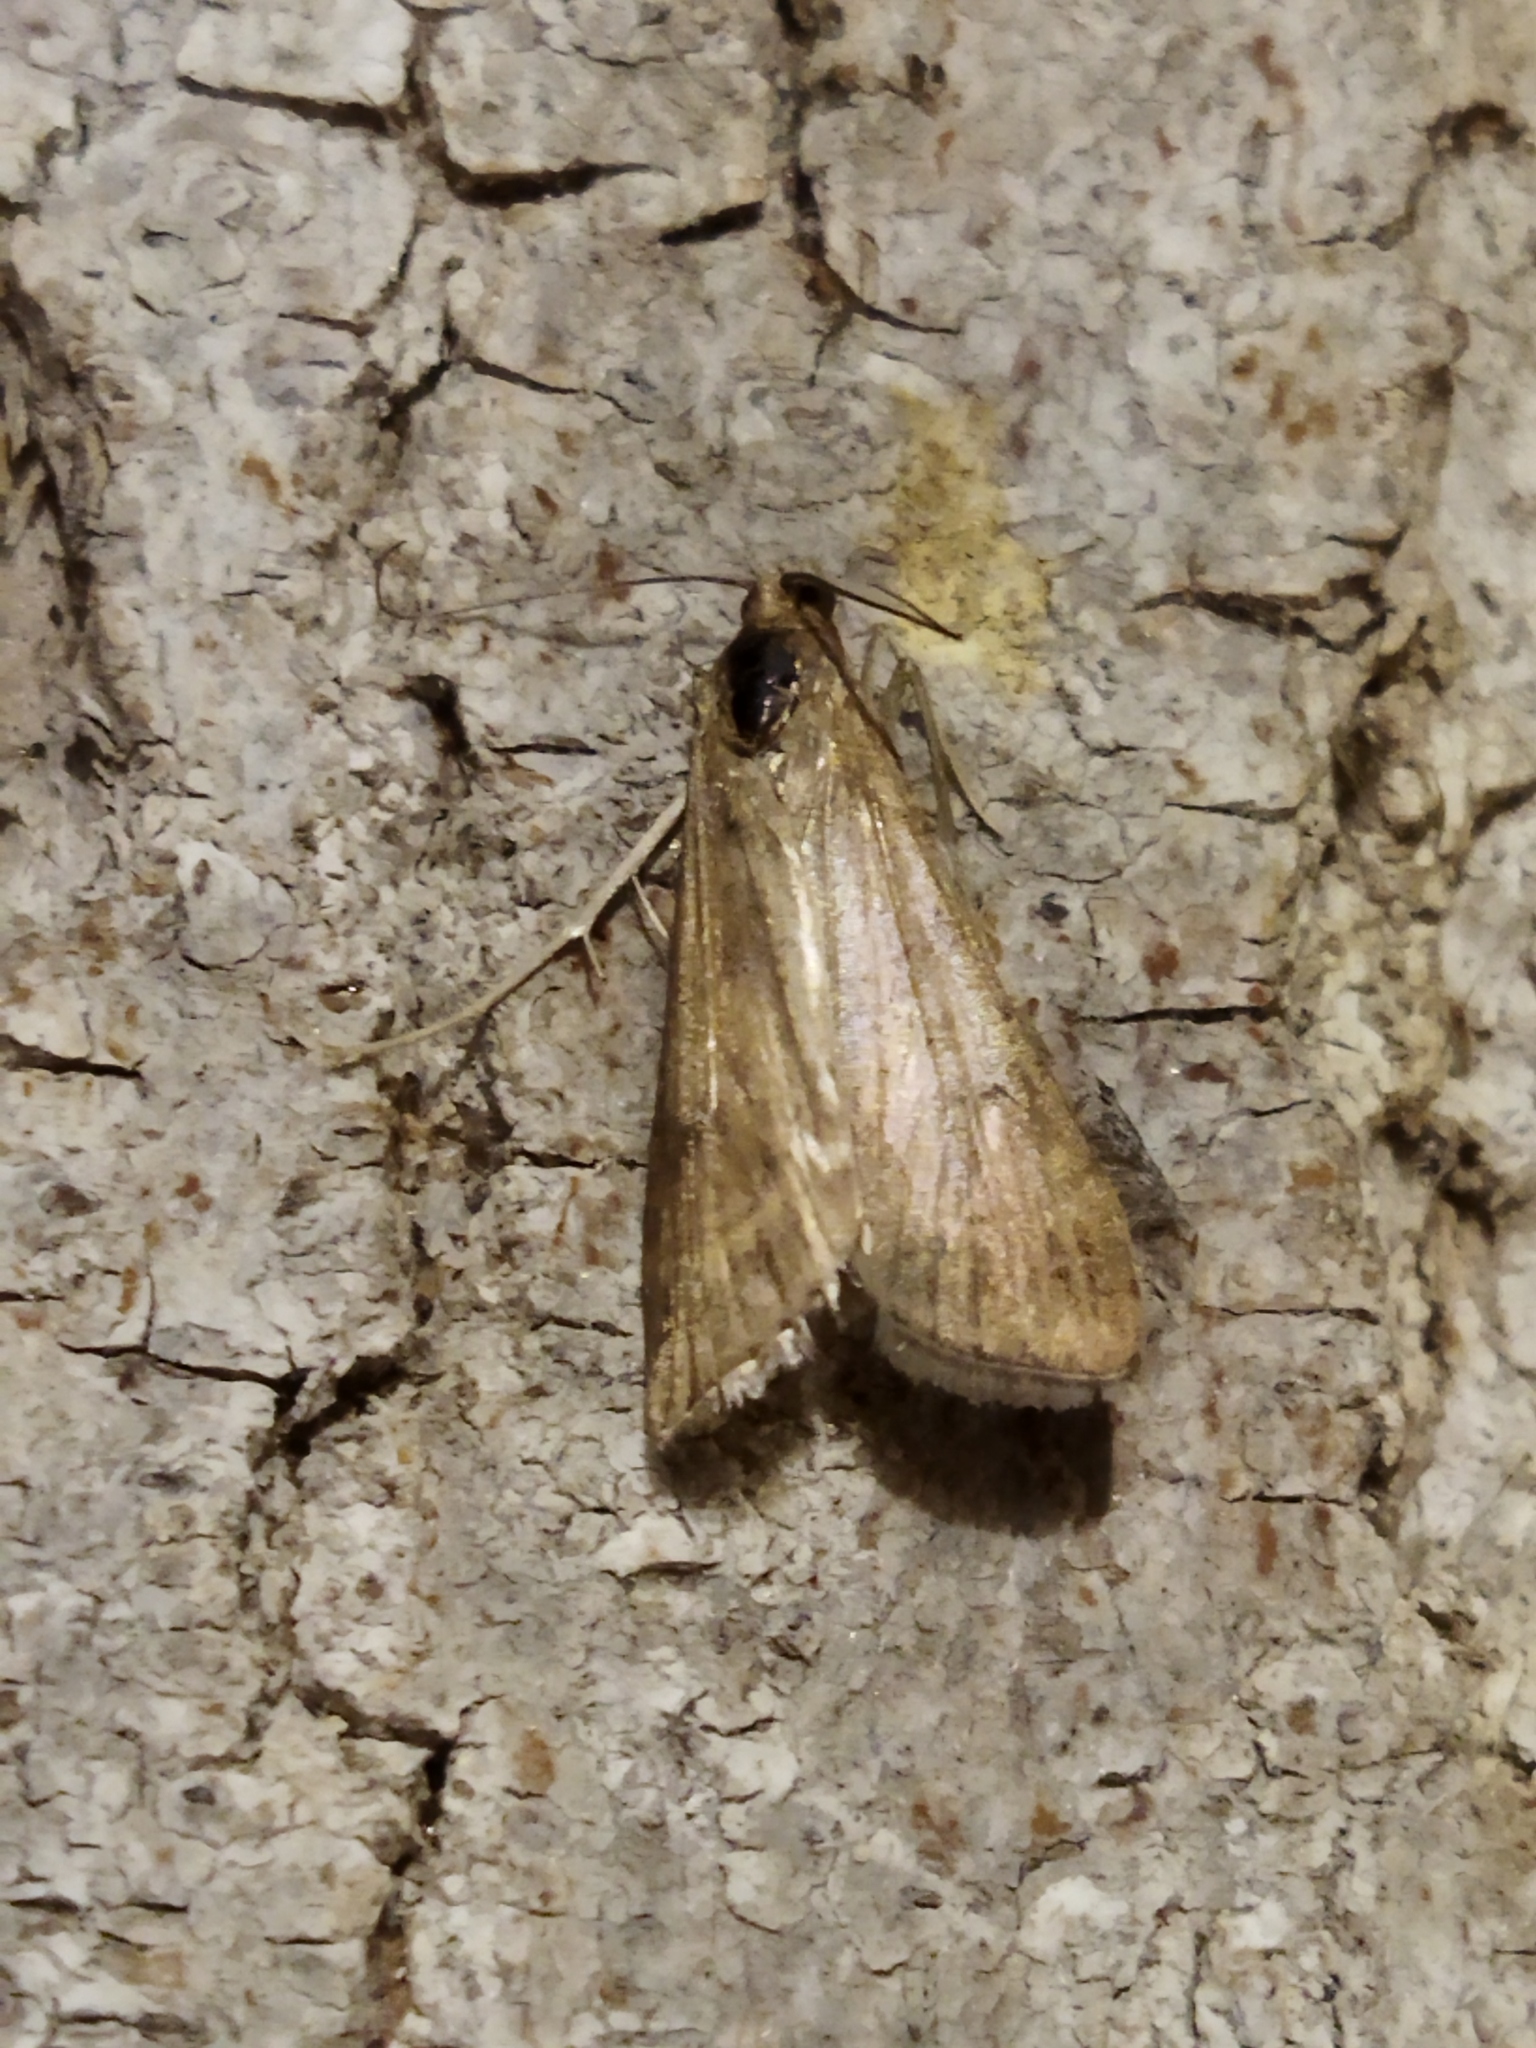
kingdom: Animalia
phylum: Arthropoda
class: Insecta
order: Lepidoptera
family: Crambidae
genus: Nomophila
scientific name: Nomophila noctuella
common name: Rush veneer
